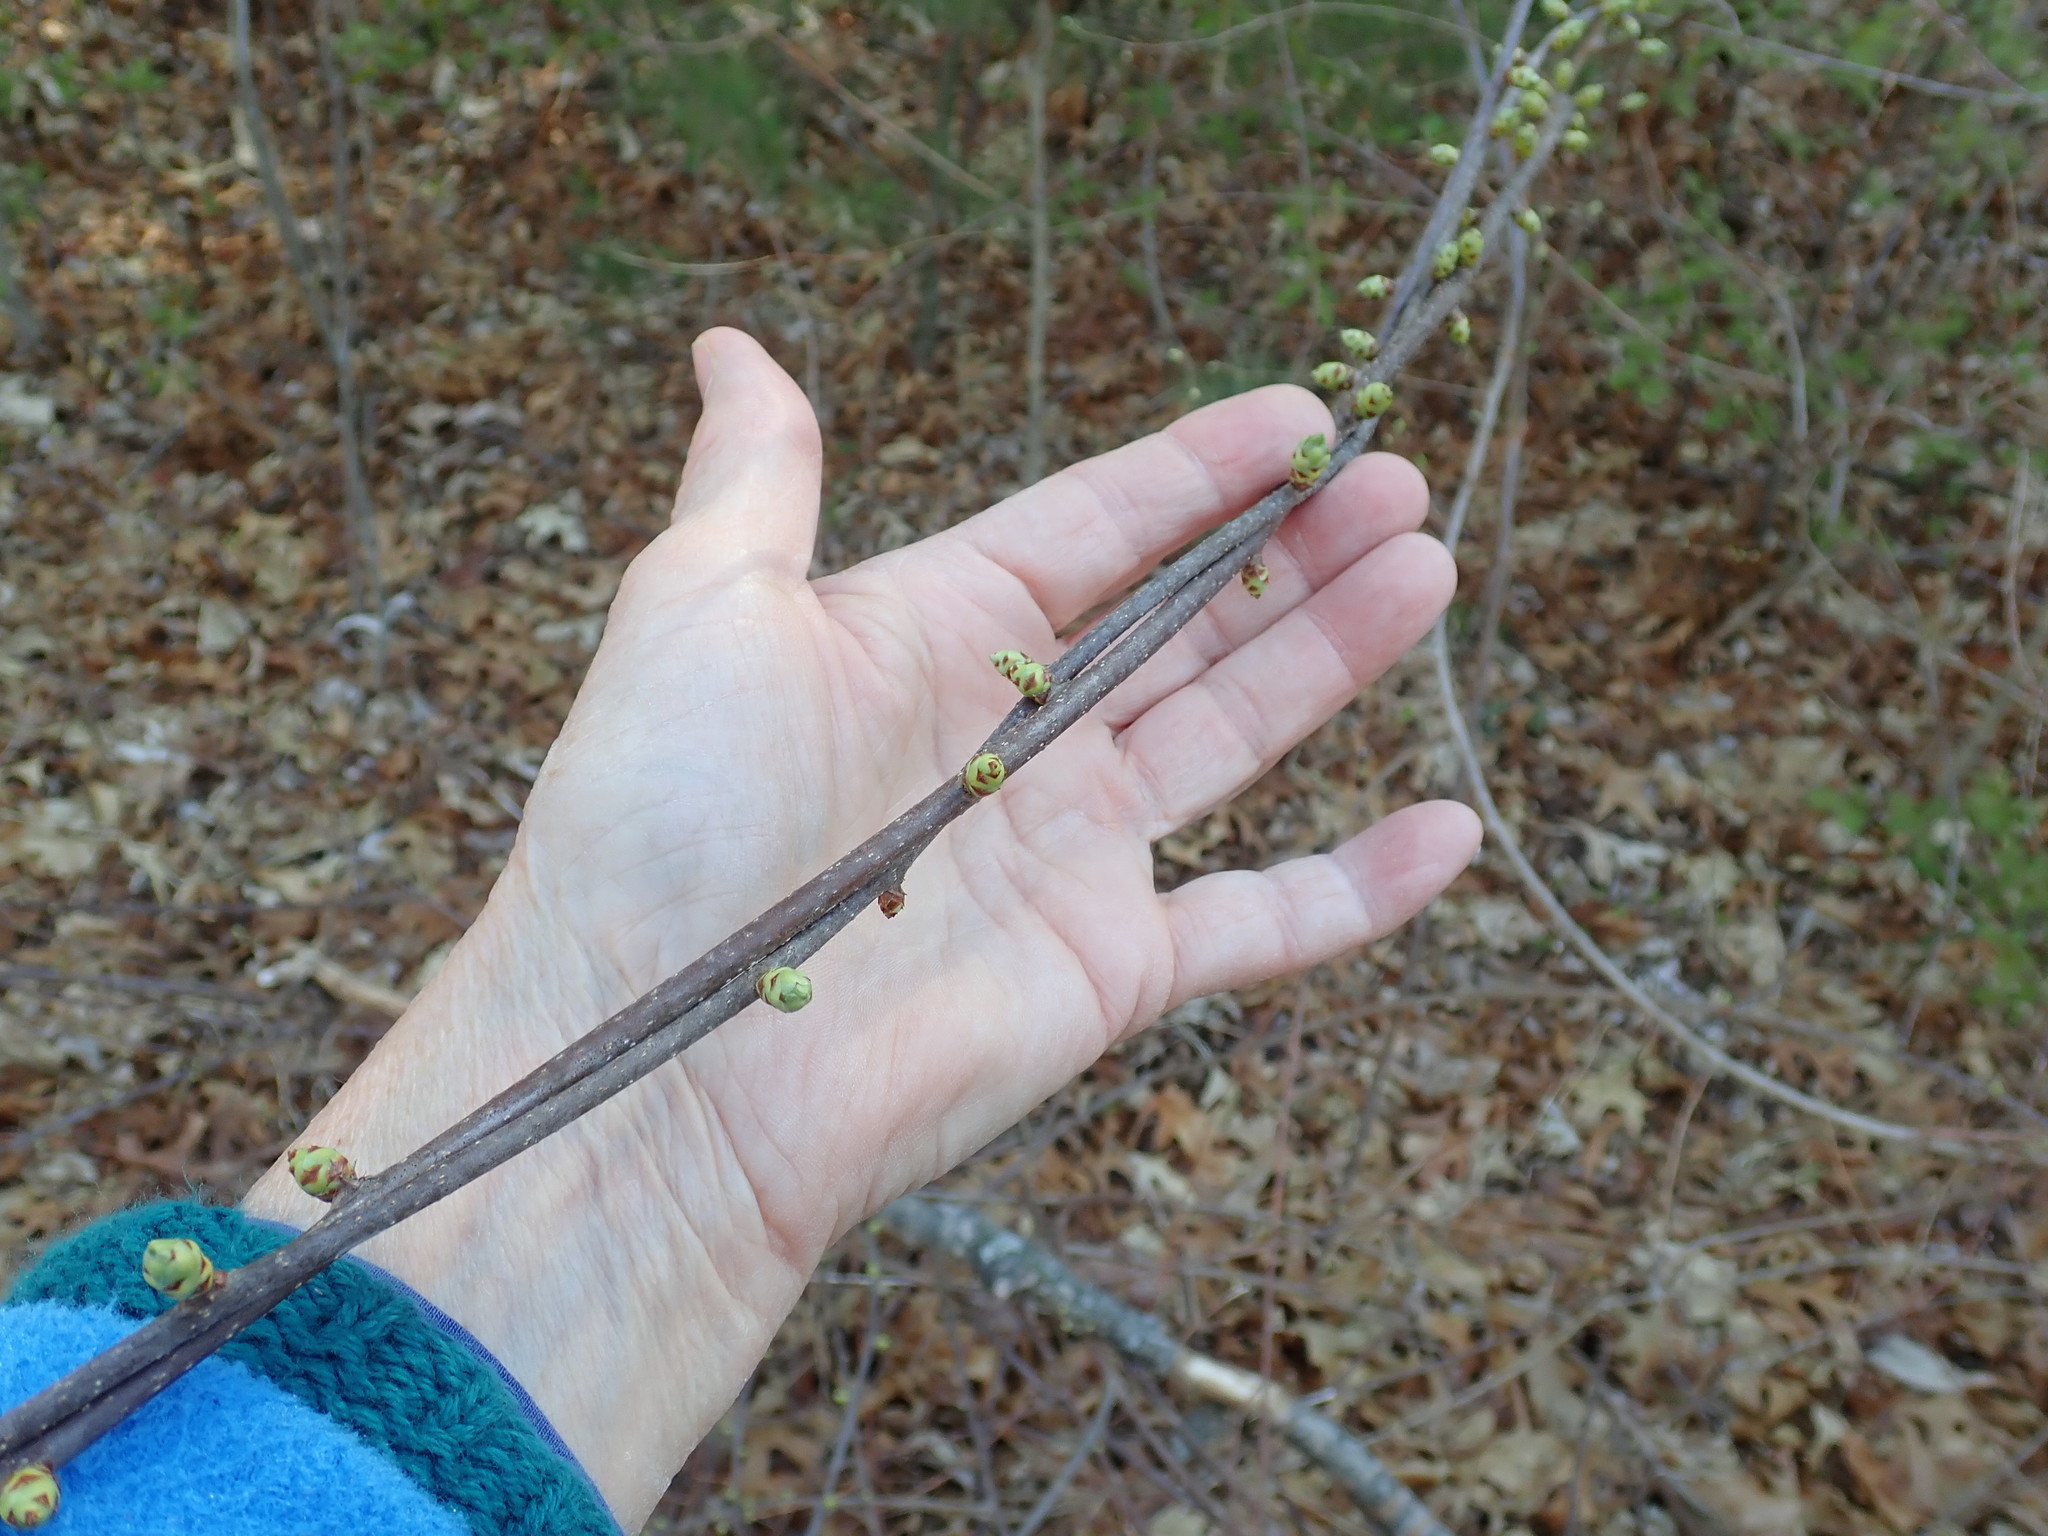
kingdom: Plantae
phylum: Tracheophyta
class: Magnoliopsida
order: Celastrales
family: Celastraceae
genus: Celastrus
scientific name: Celastrus orbiculatus
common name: Oriental bittersweet
